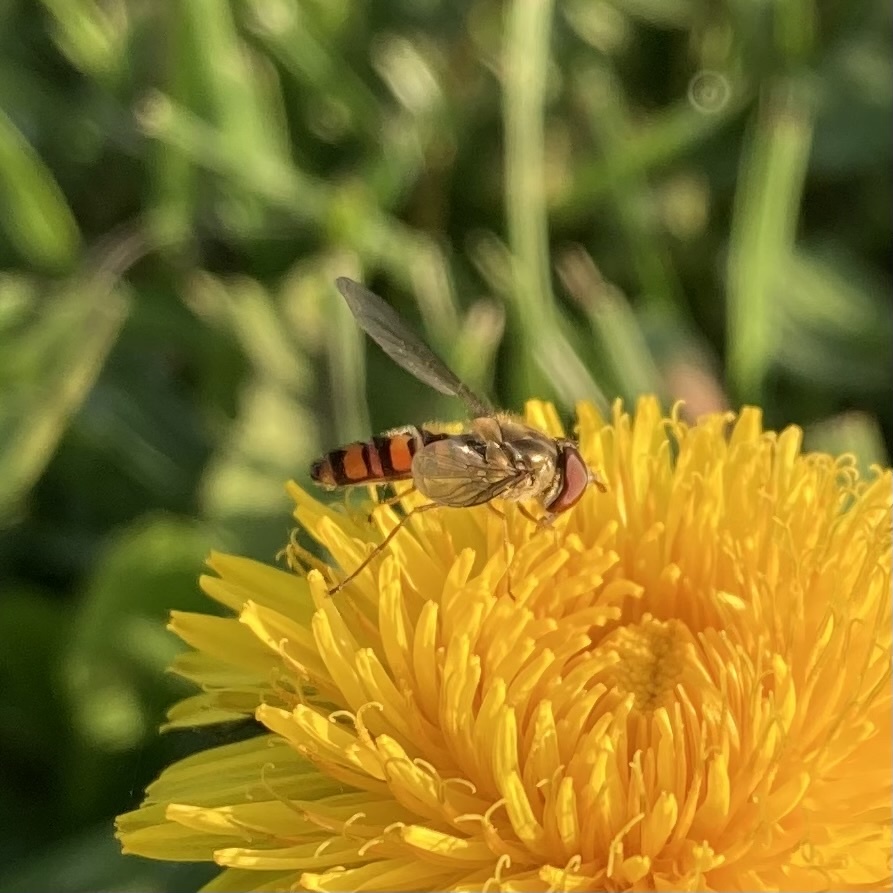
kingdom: Animalia
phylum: Arthropoda
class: Insecta
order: Diptera
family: Syrphidae
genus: Episyrphus
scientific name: Episyrphus balteatus
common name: Marmalade hoverfly
